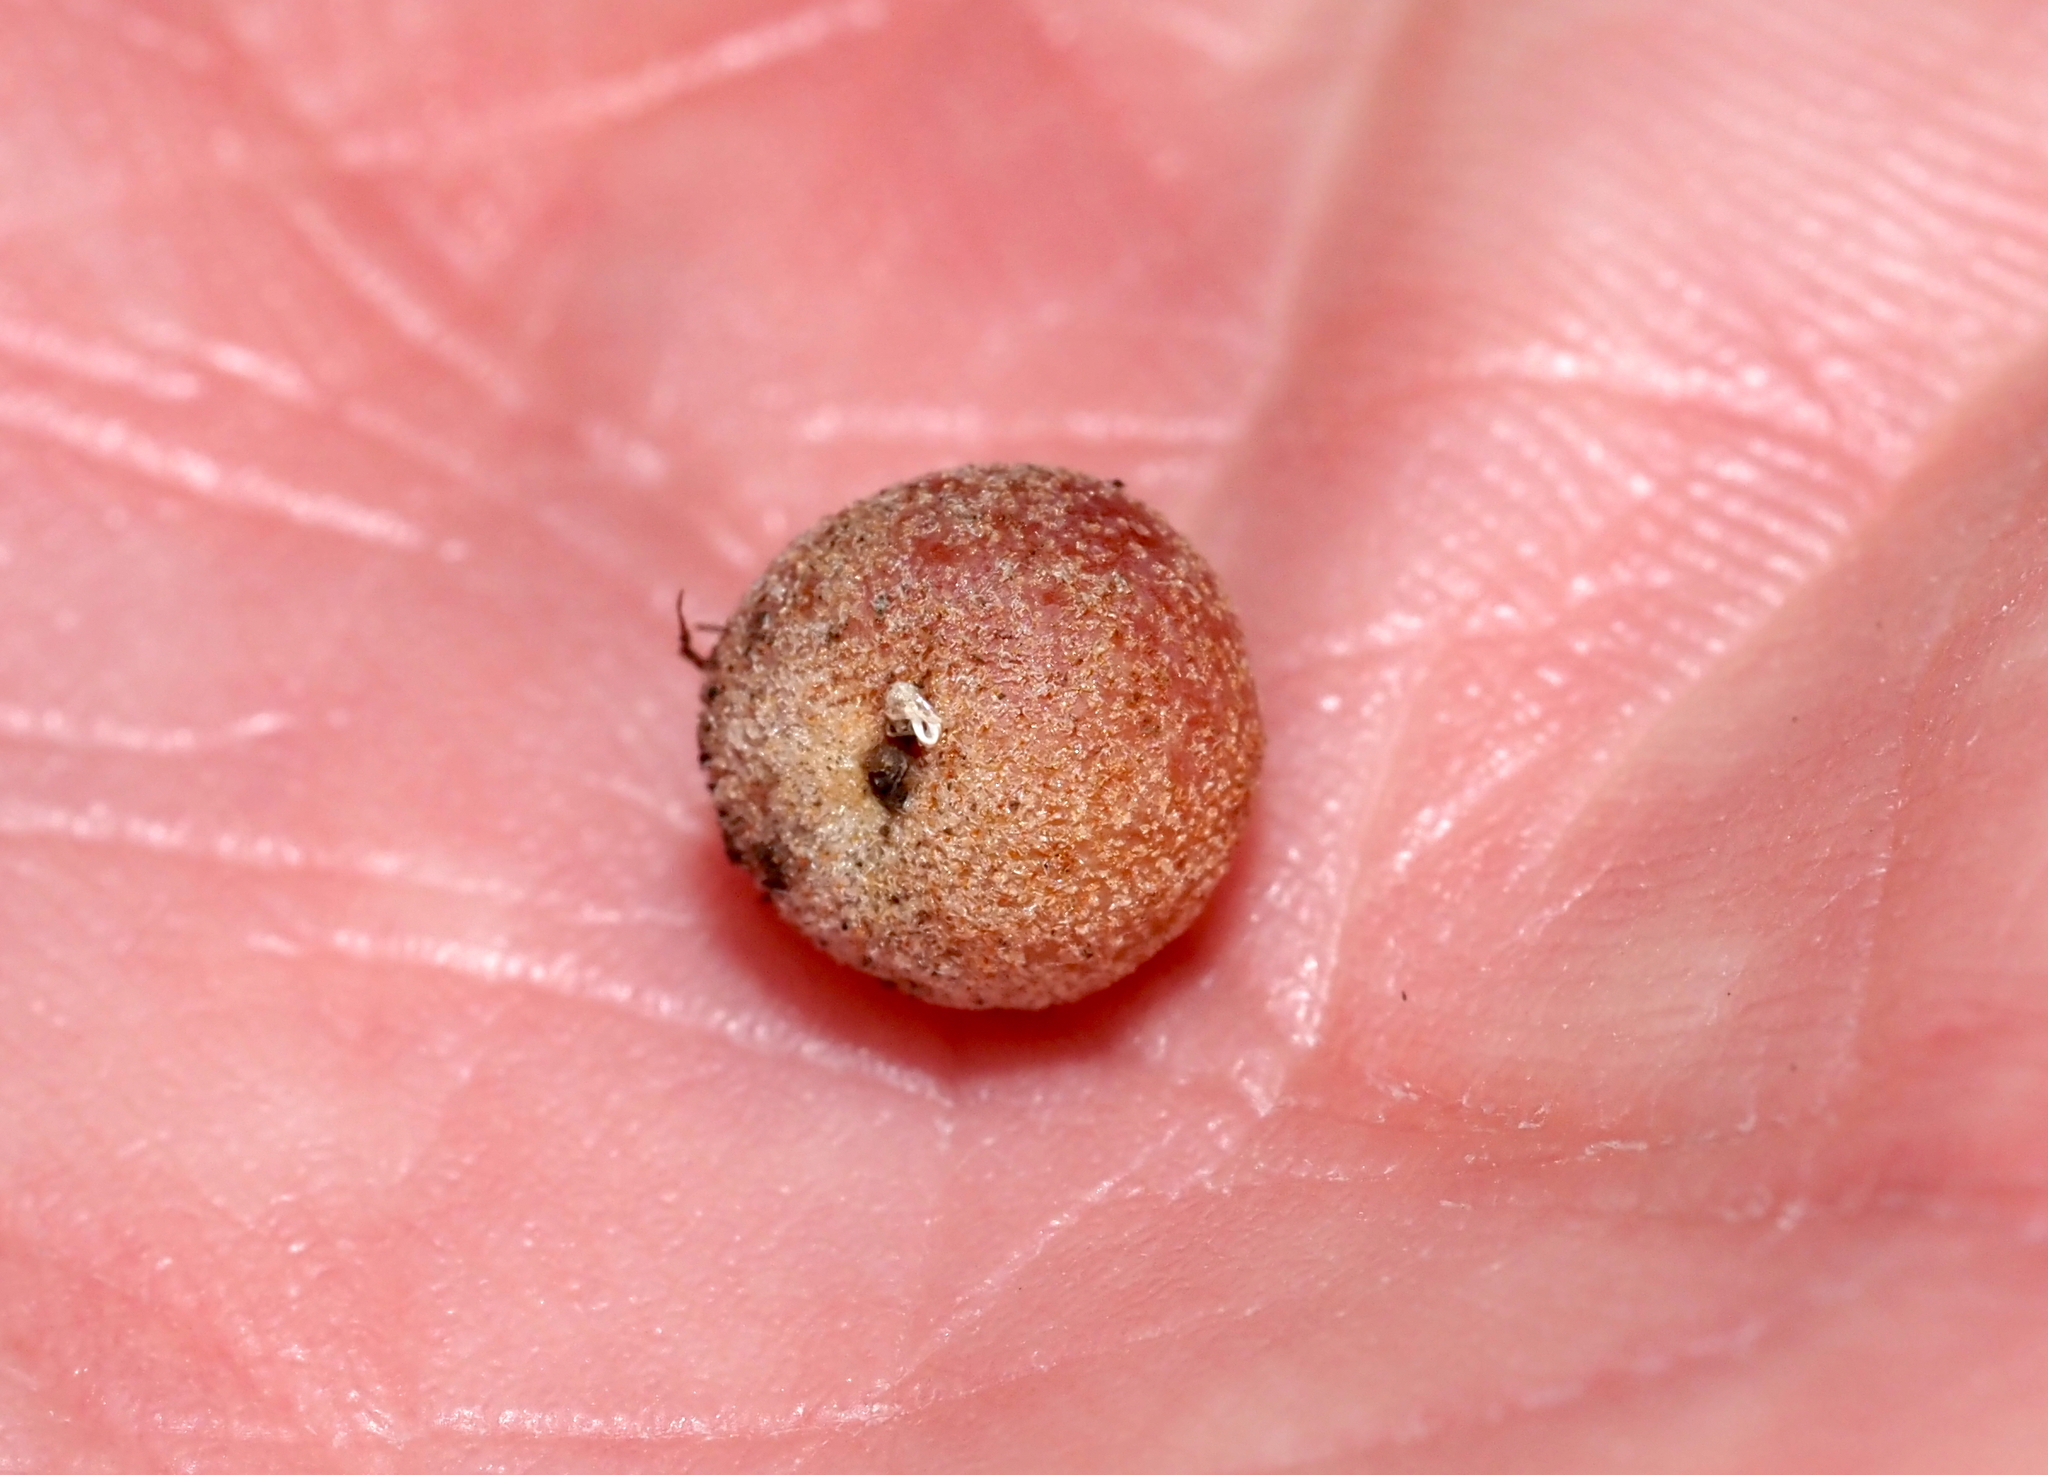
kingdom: Animalia
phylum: Arthropoda
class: Insecta
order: Hymenoptera
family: Cynipidae
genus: Philonix
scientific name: Philonix fulvicollis
